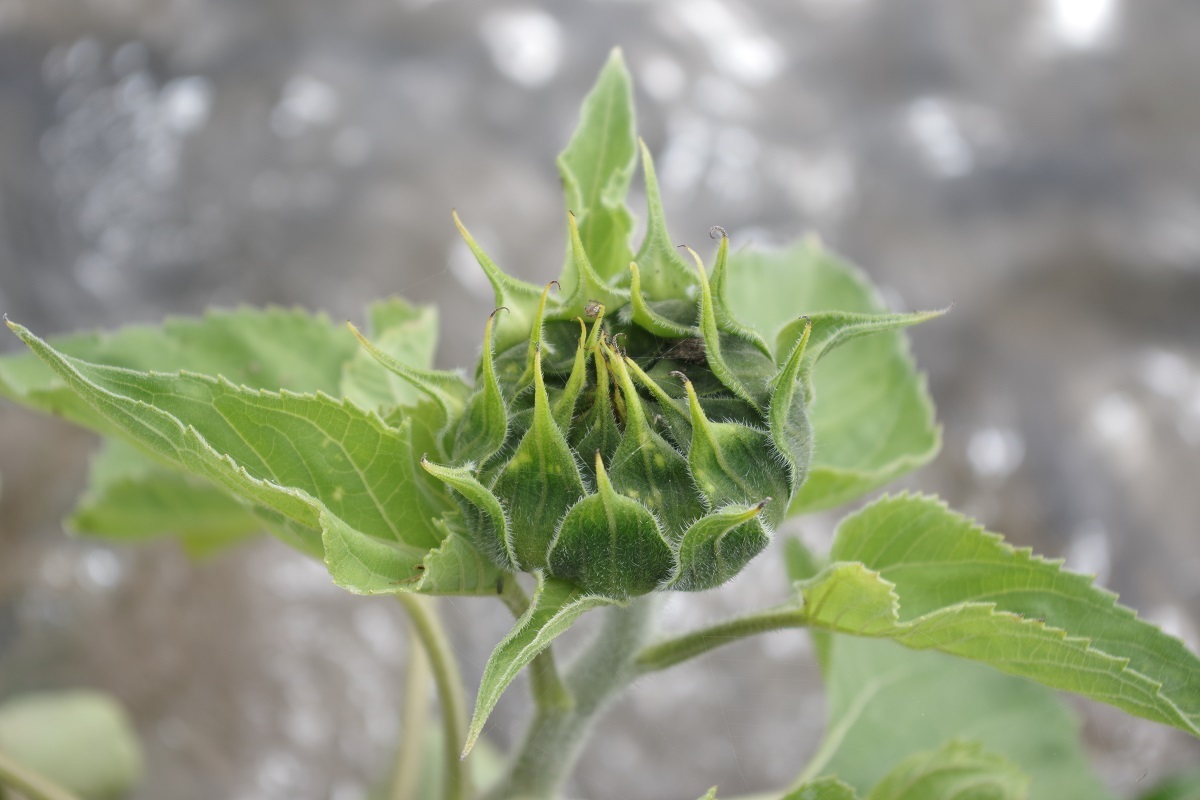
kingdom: Plantae
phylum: Tracheophyta
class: Magnoliopsida
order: Asterales
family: Asteraceae
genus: Helianthus
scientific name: Helianthus annuus
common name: Sunflower
